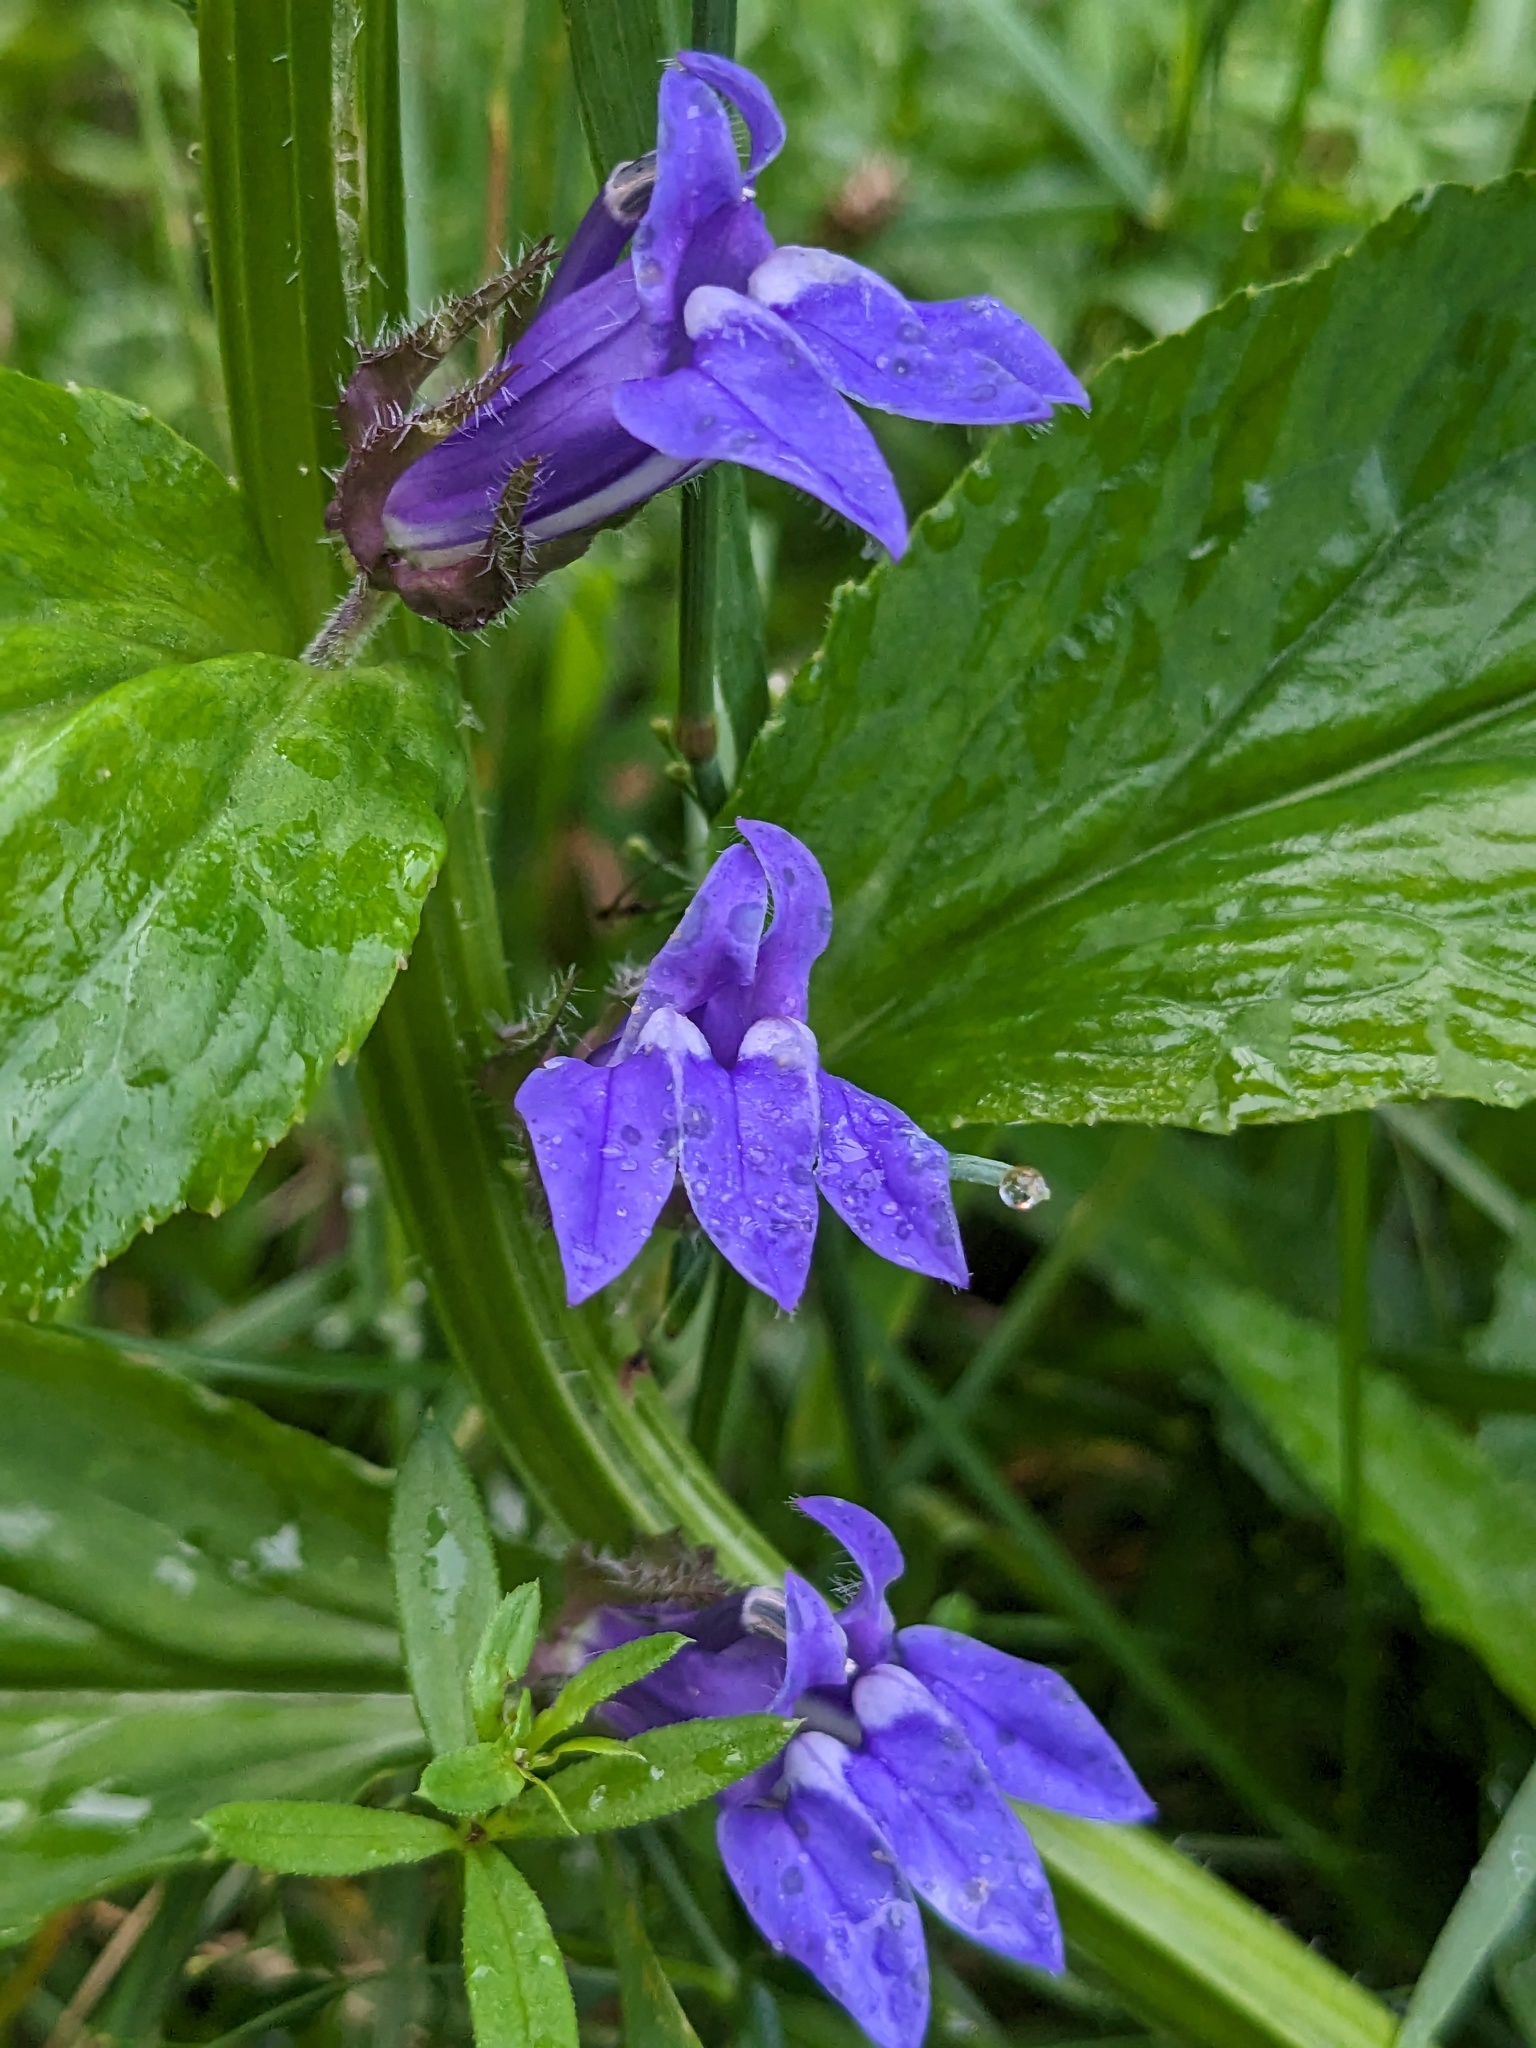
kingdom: Plantae
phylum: Tracheophyta
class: Magnoliopsida
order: Asterales
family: Campanulaceae
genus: Lobelia
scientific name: Lobelia siphilitica
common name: Great lobelia
